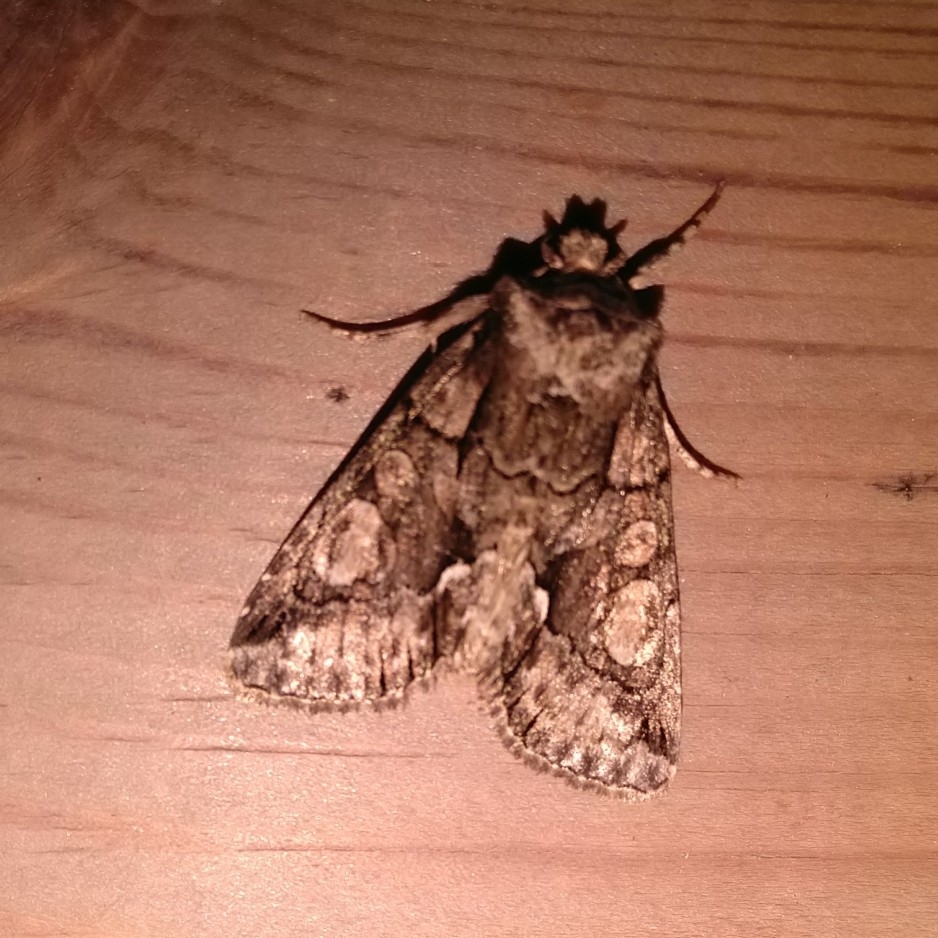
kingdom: Animalia
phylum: Arthropoda
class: Insecta
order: Lepidoptera
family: Noctuidae
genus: Allophyes
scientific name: Allophyes oxyacanthae
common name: Green-brindled crescent
